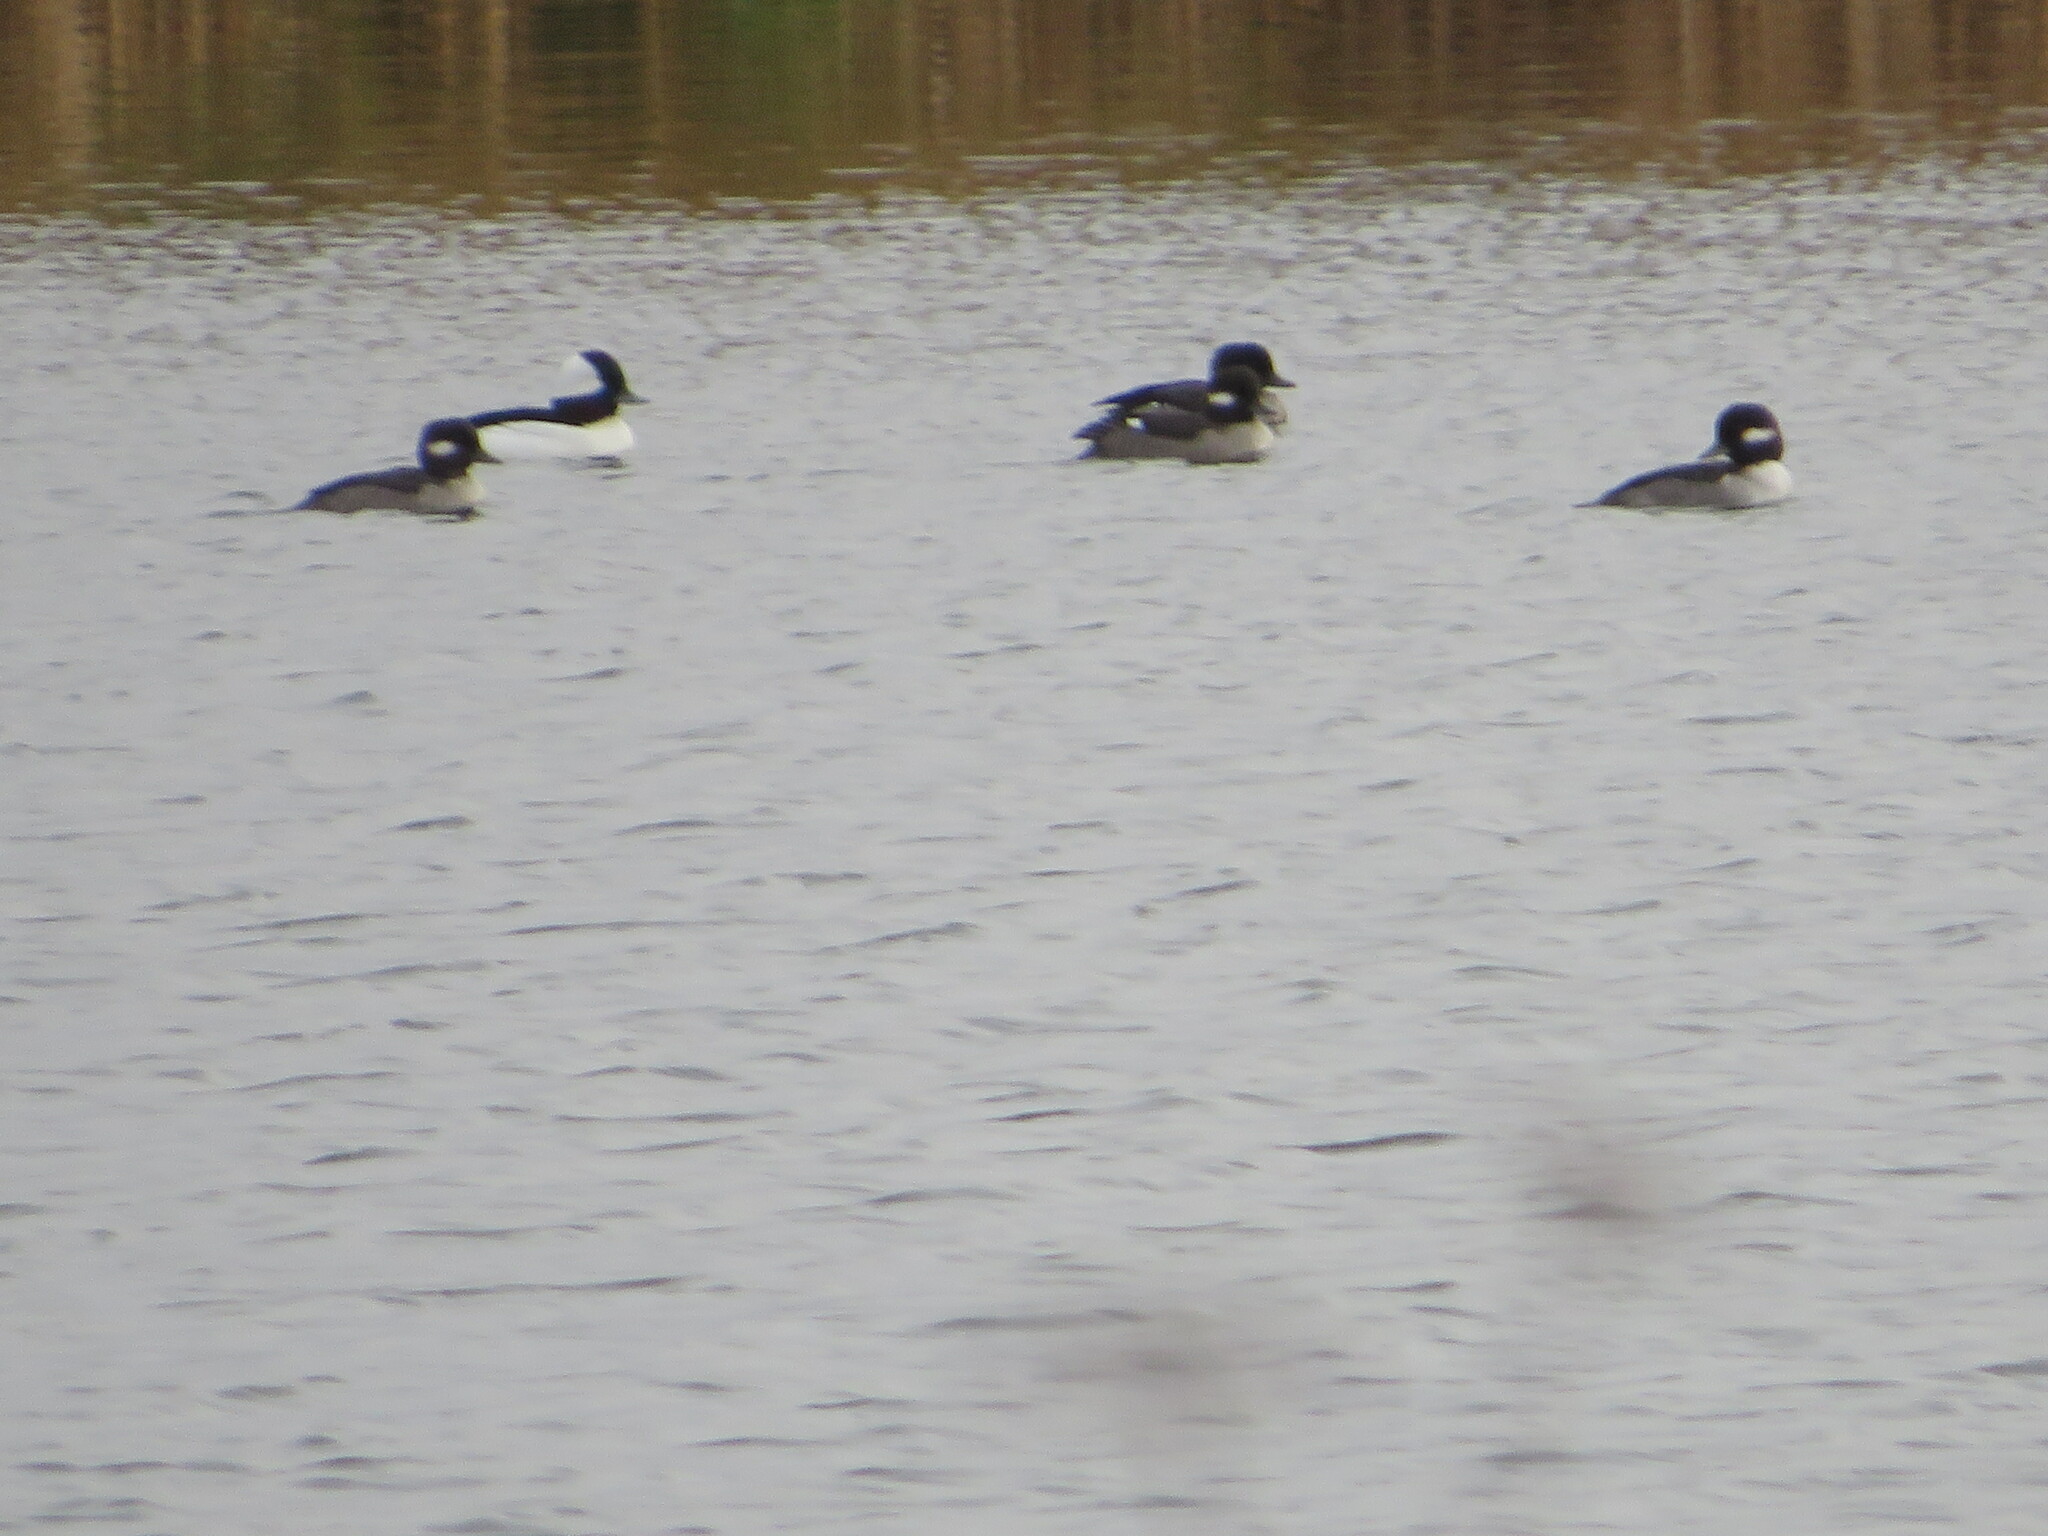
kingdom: Animalia
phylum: Chordata
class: Aves
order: Anseriformes
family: Anatidae
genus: Bucephala
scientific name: Bucephala albeola
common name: Bufflehead
